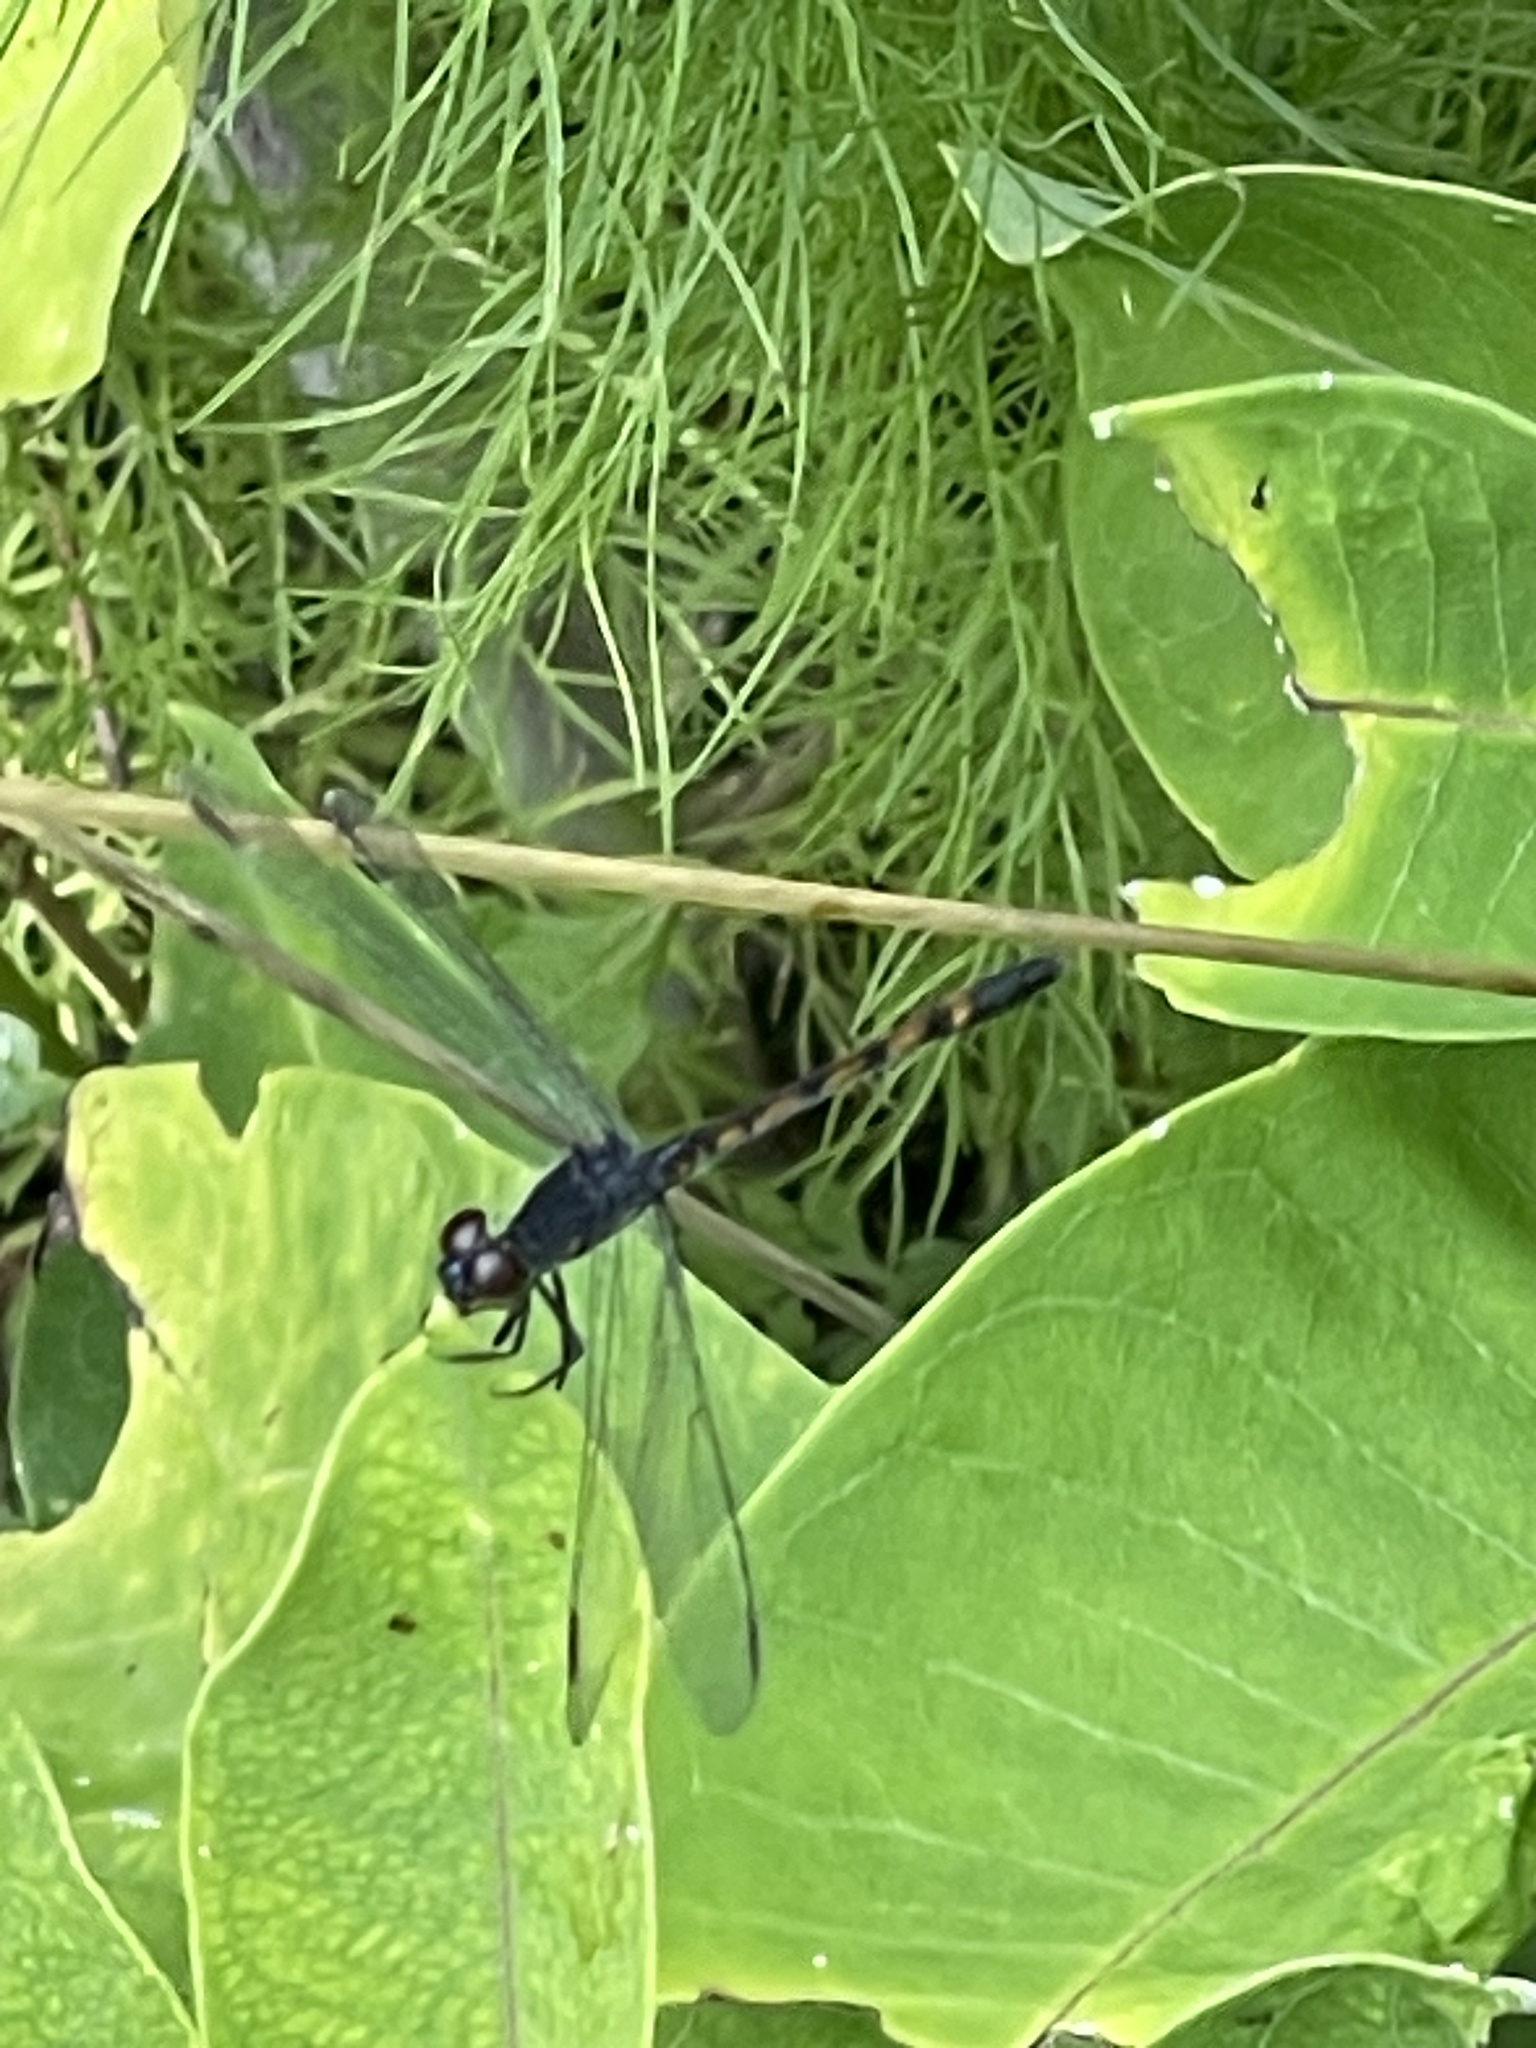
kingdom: Animalia
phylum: Arthropoda
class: Insecta
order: Odonata
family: Libellulidae
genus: Erythrodiplax
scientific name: Erythrodiplax berenice
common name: Seaside dragonlet
